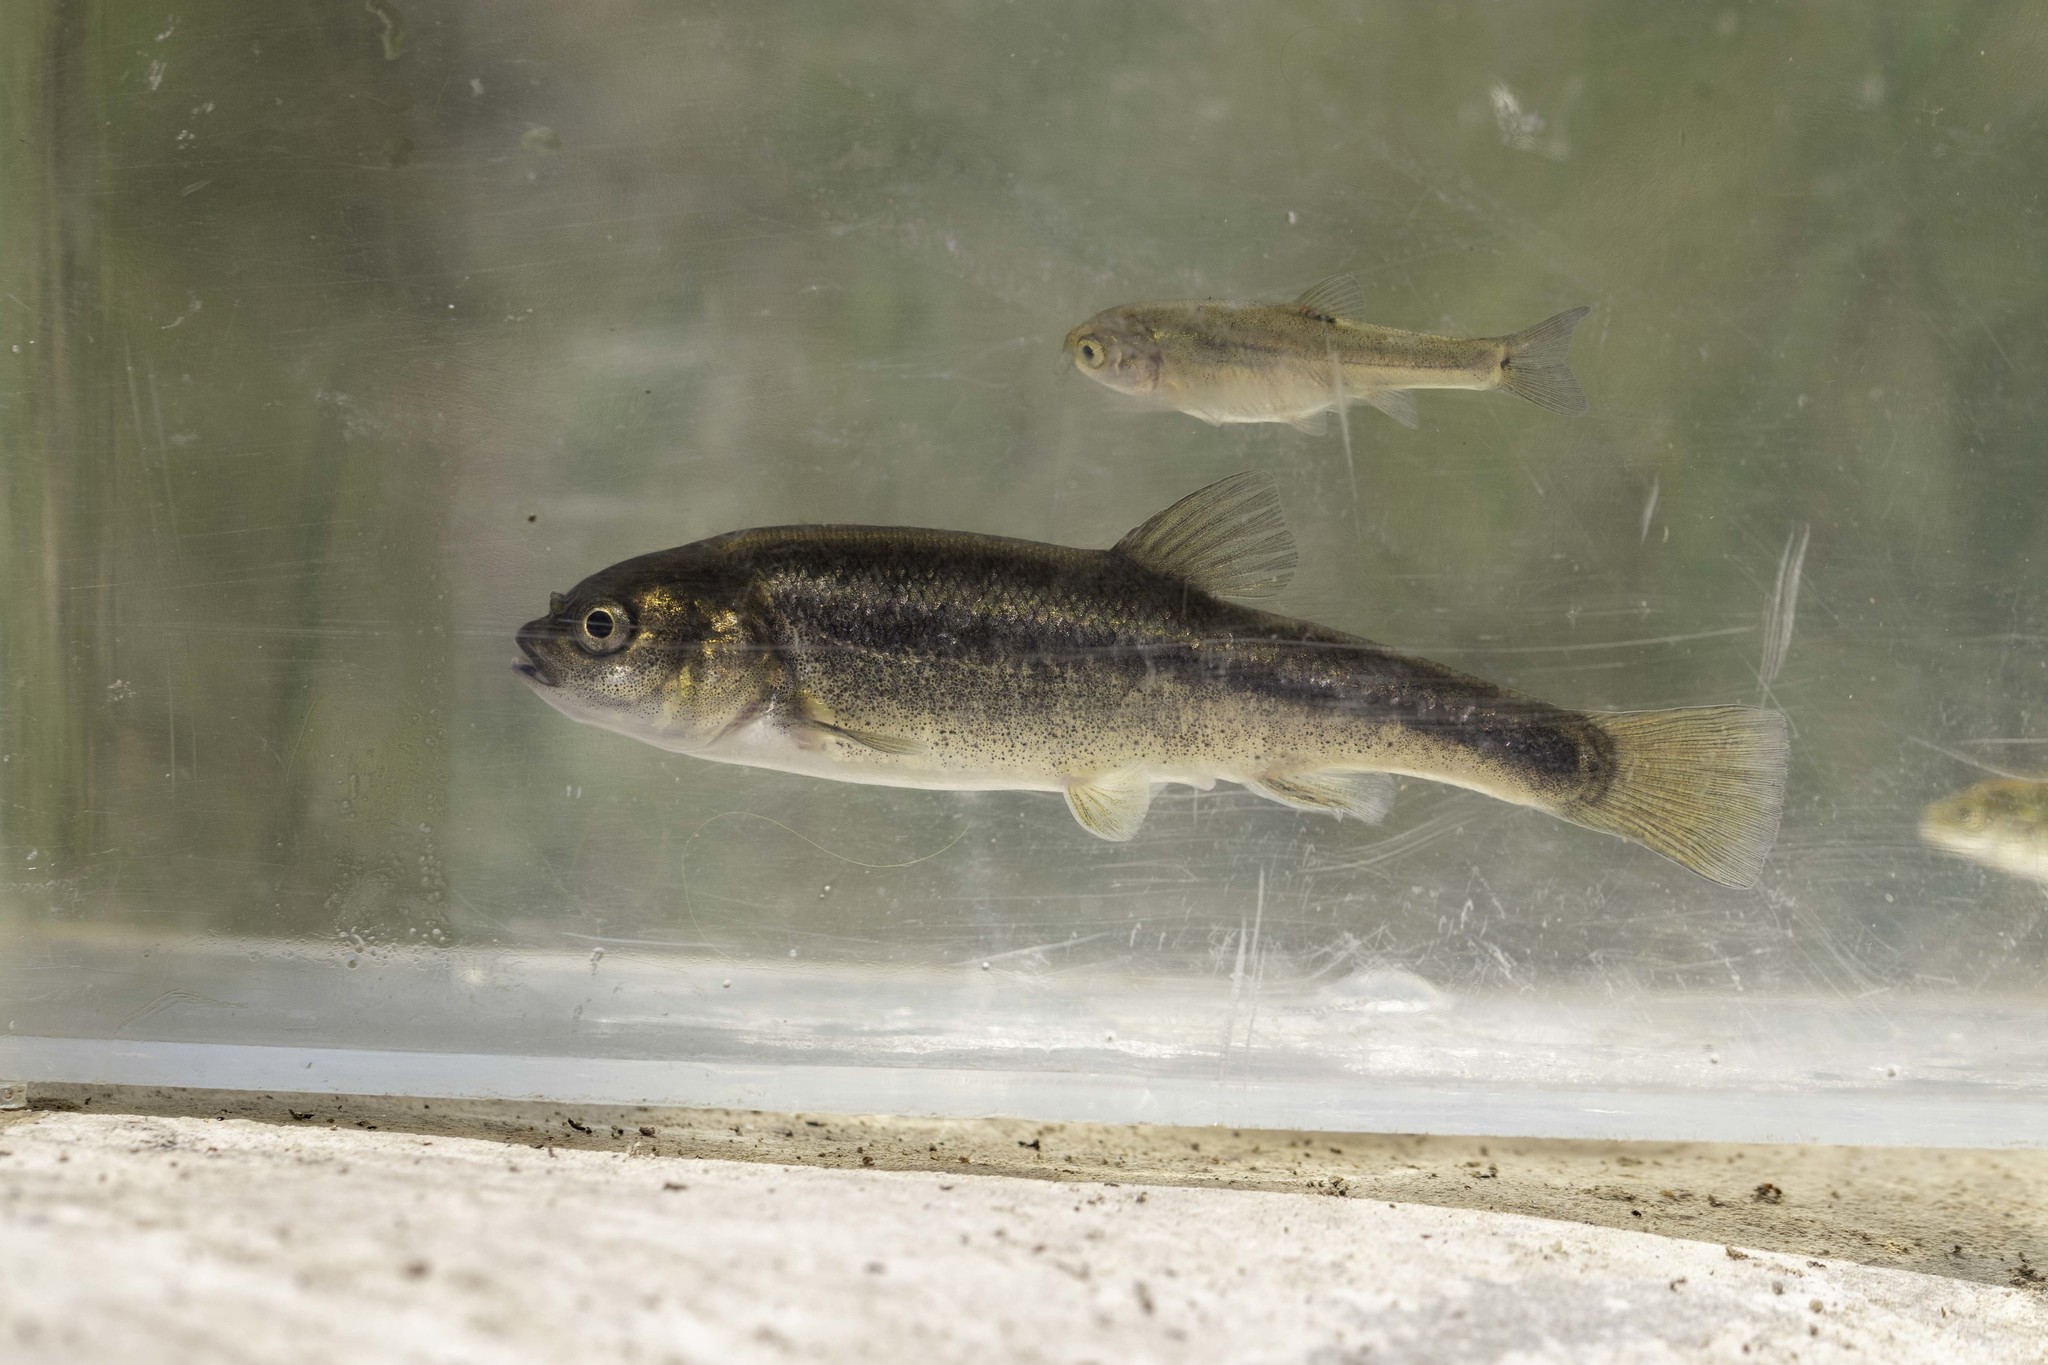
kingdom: Animalia
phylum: Chordata
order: Cypriniformes
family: Cyprinidae
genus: Gila
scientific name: Gila orcuttii
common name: Arroyo chub
